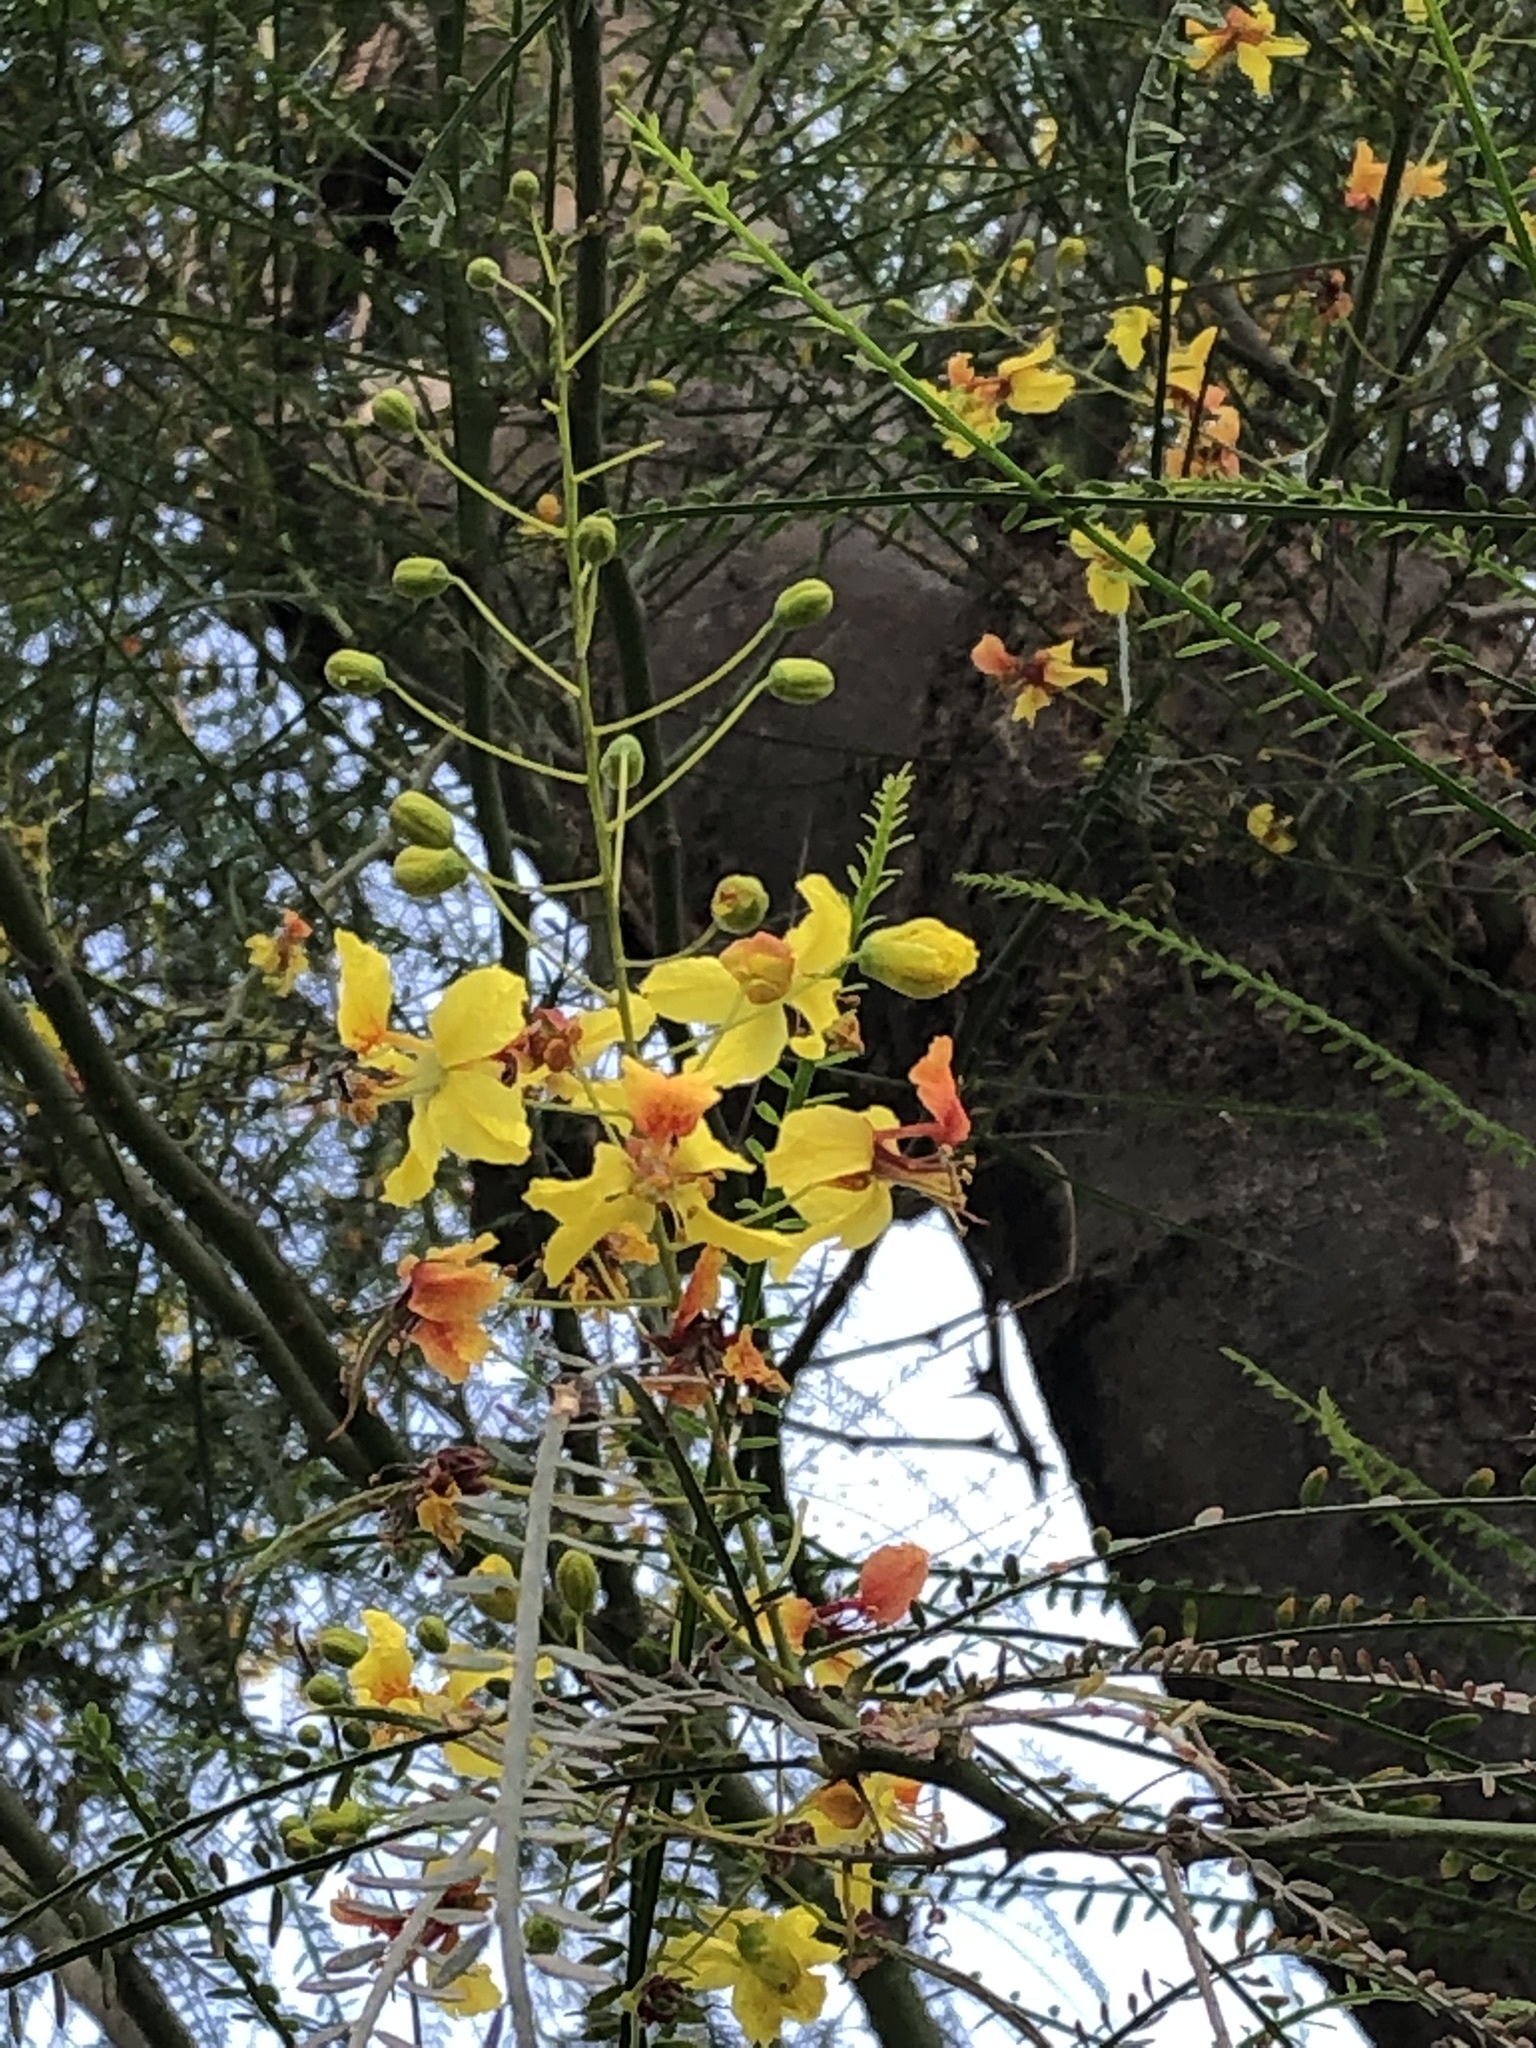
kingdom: Plantae
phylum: Tracheophyta
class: Magnoliopsida
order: Fabales
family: Fabaceae
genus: Parkinsonia
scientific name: Parkinsonia aculeata
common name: Jerusalem thorn
